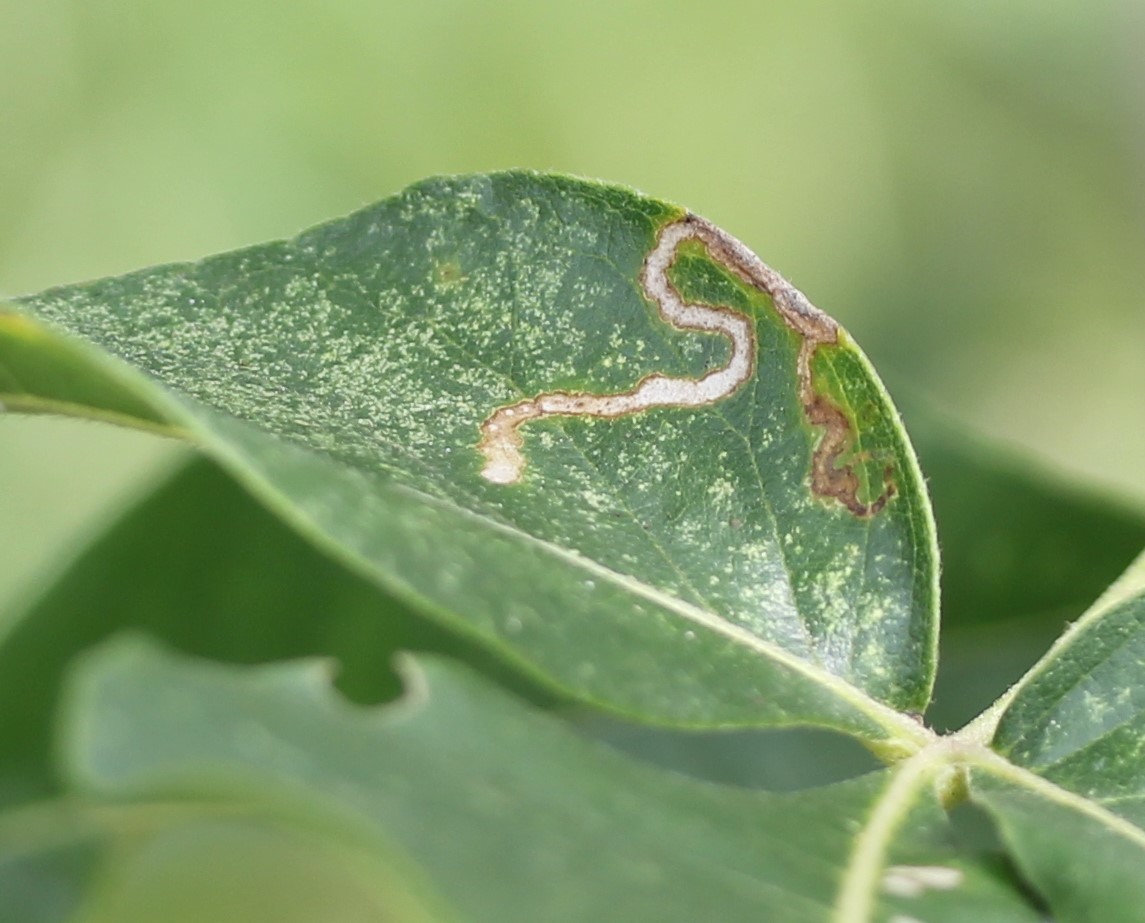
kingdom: Animalia
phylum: Arthropoda
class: Insecta
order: Lepidoptera
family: Nepticulidae
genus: Fomoria
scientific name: Fomoria pteliaeella
